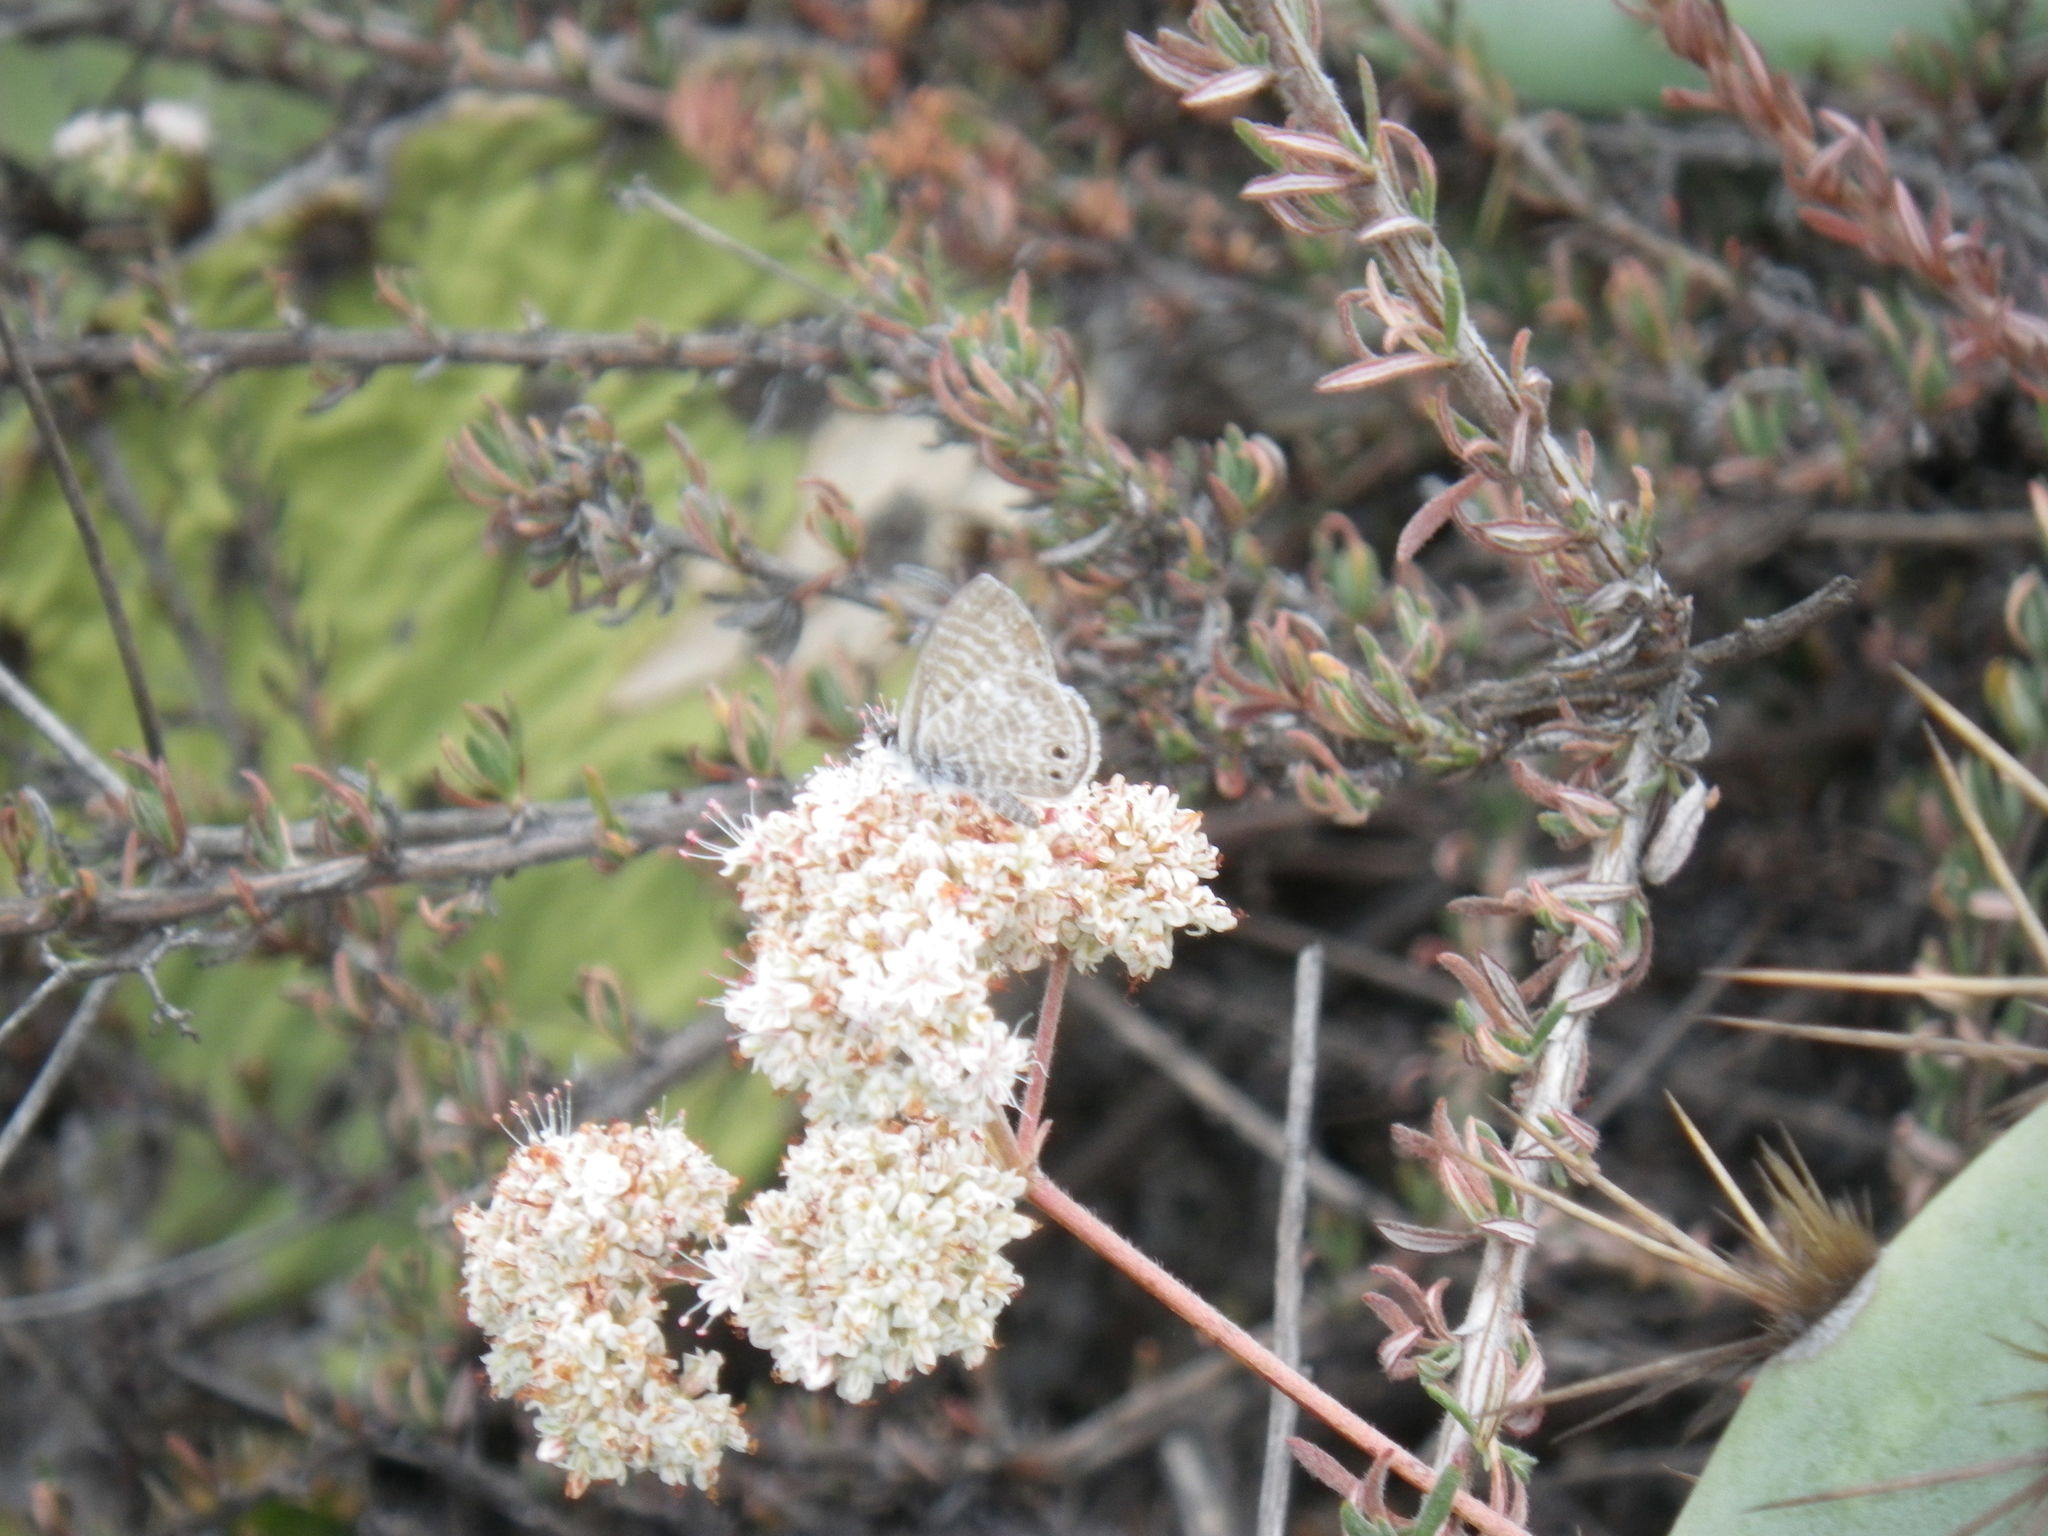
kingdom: Animalia
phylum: Arthropoda
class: Insecta
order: Lepidoptera
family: Lycaenidae
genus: Leptotes
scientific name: Leptotes marina
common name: Marine blue
